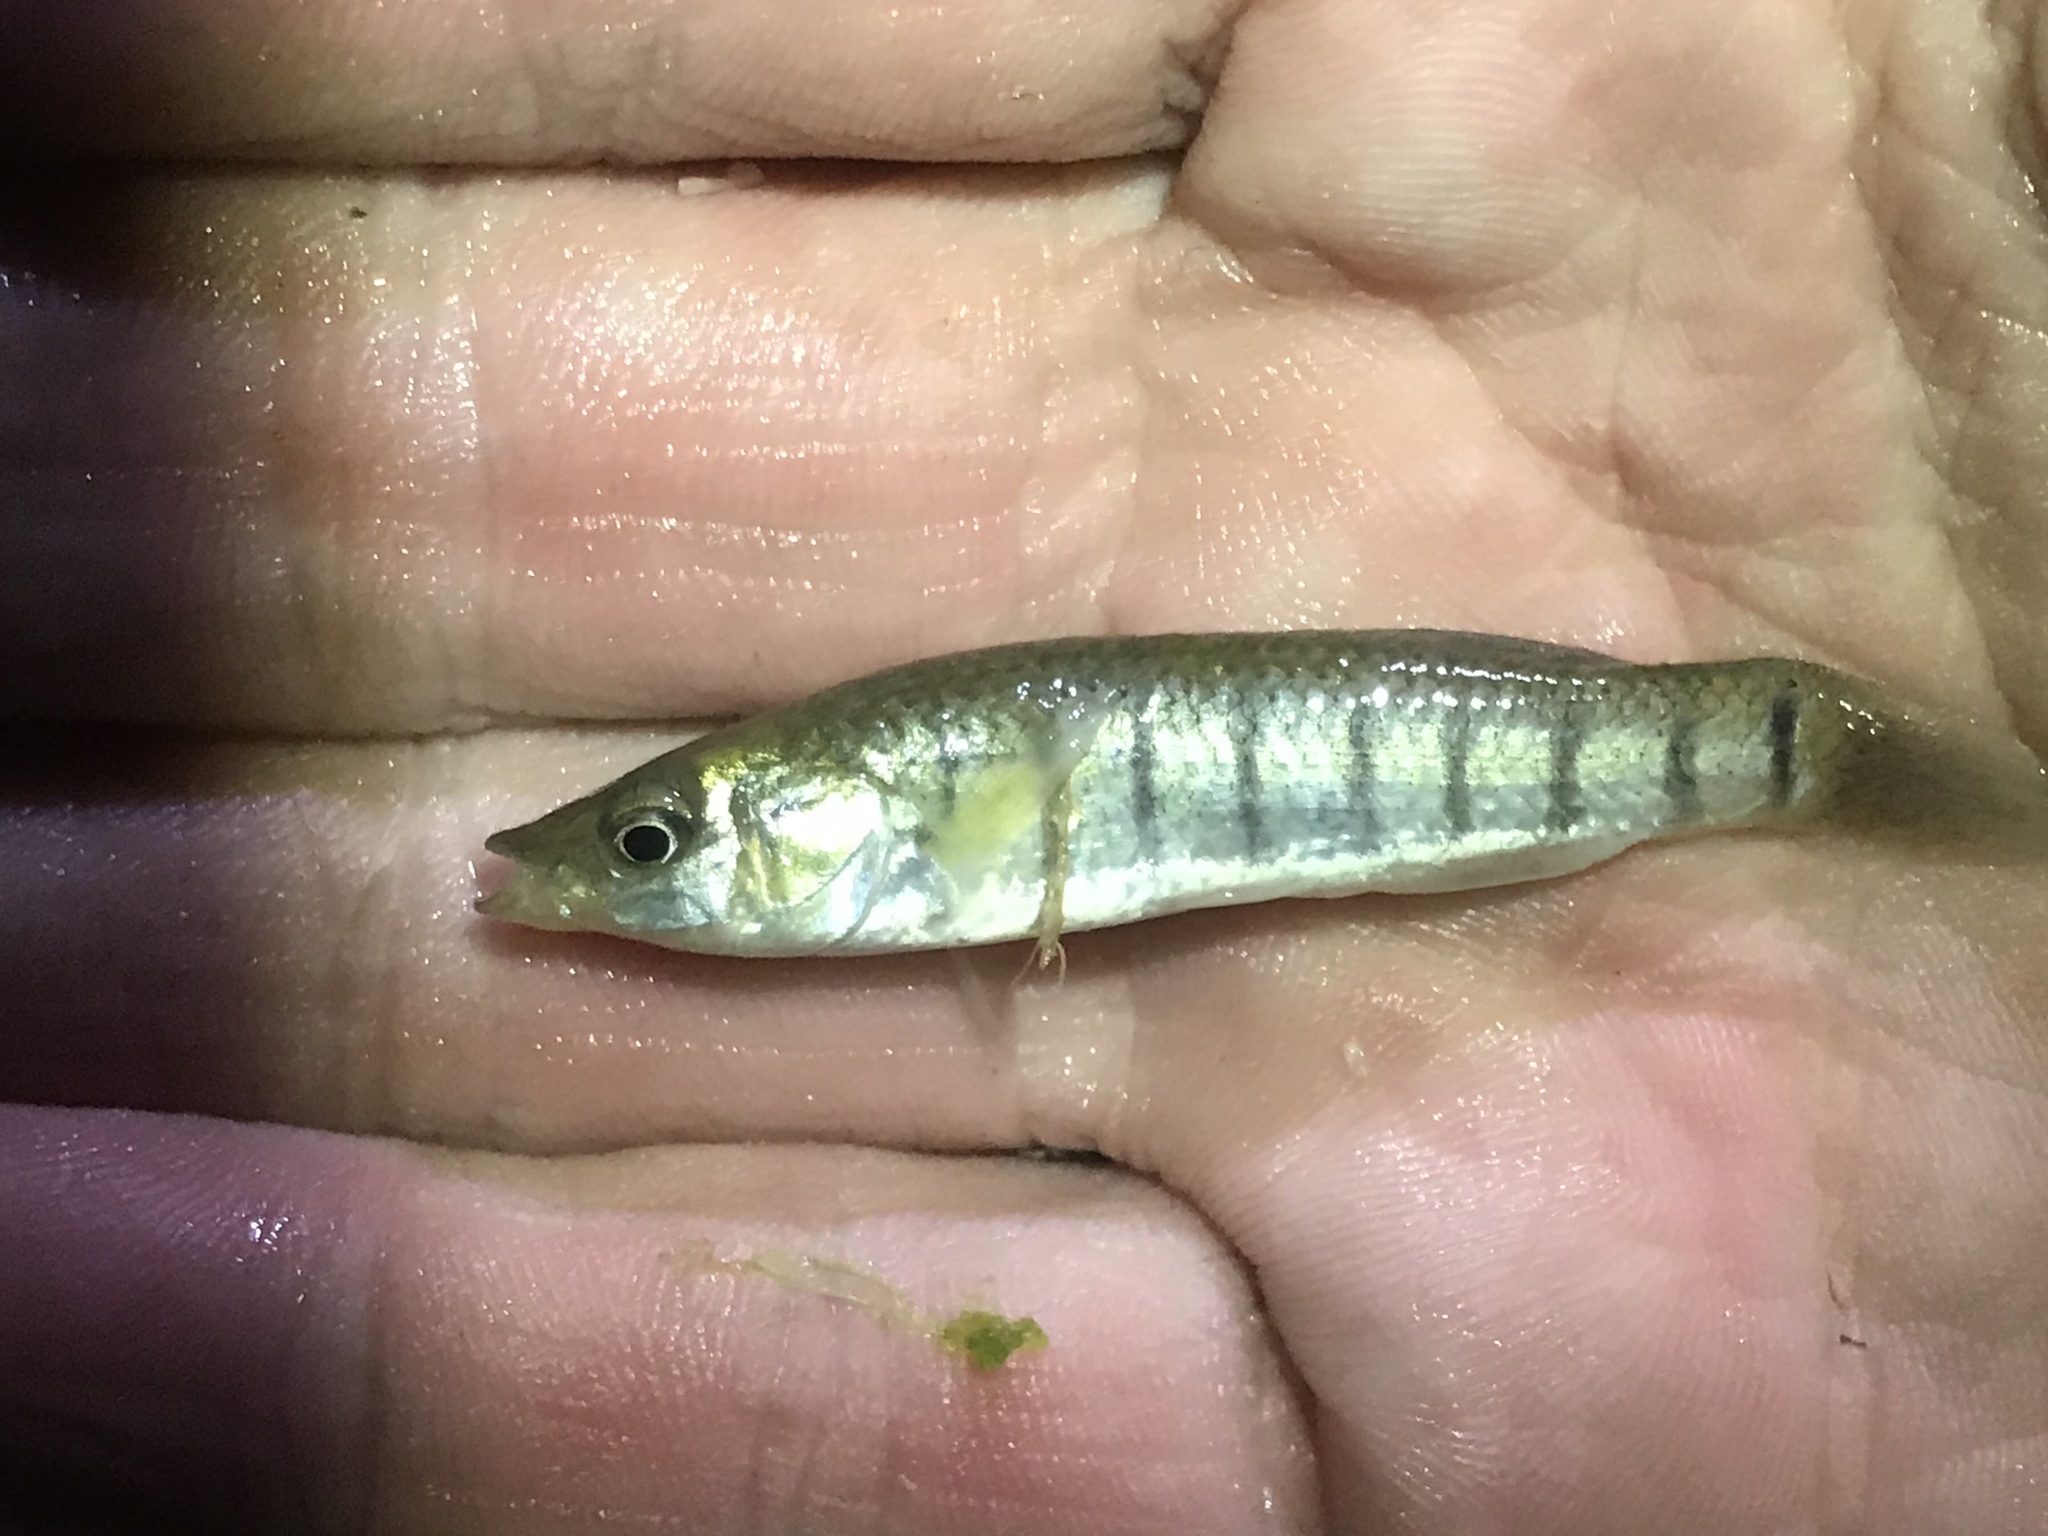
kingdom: Animalia
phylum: Chordata
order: Cyprinodontiformes
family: Fundulidae
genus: Fundulus
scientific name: Fundulus similis
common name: Longnose killifish
